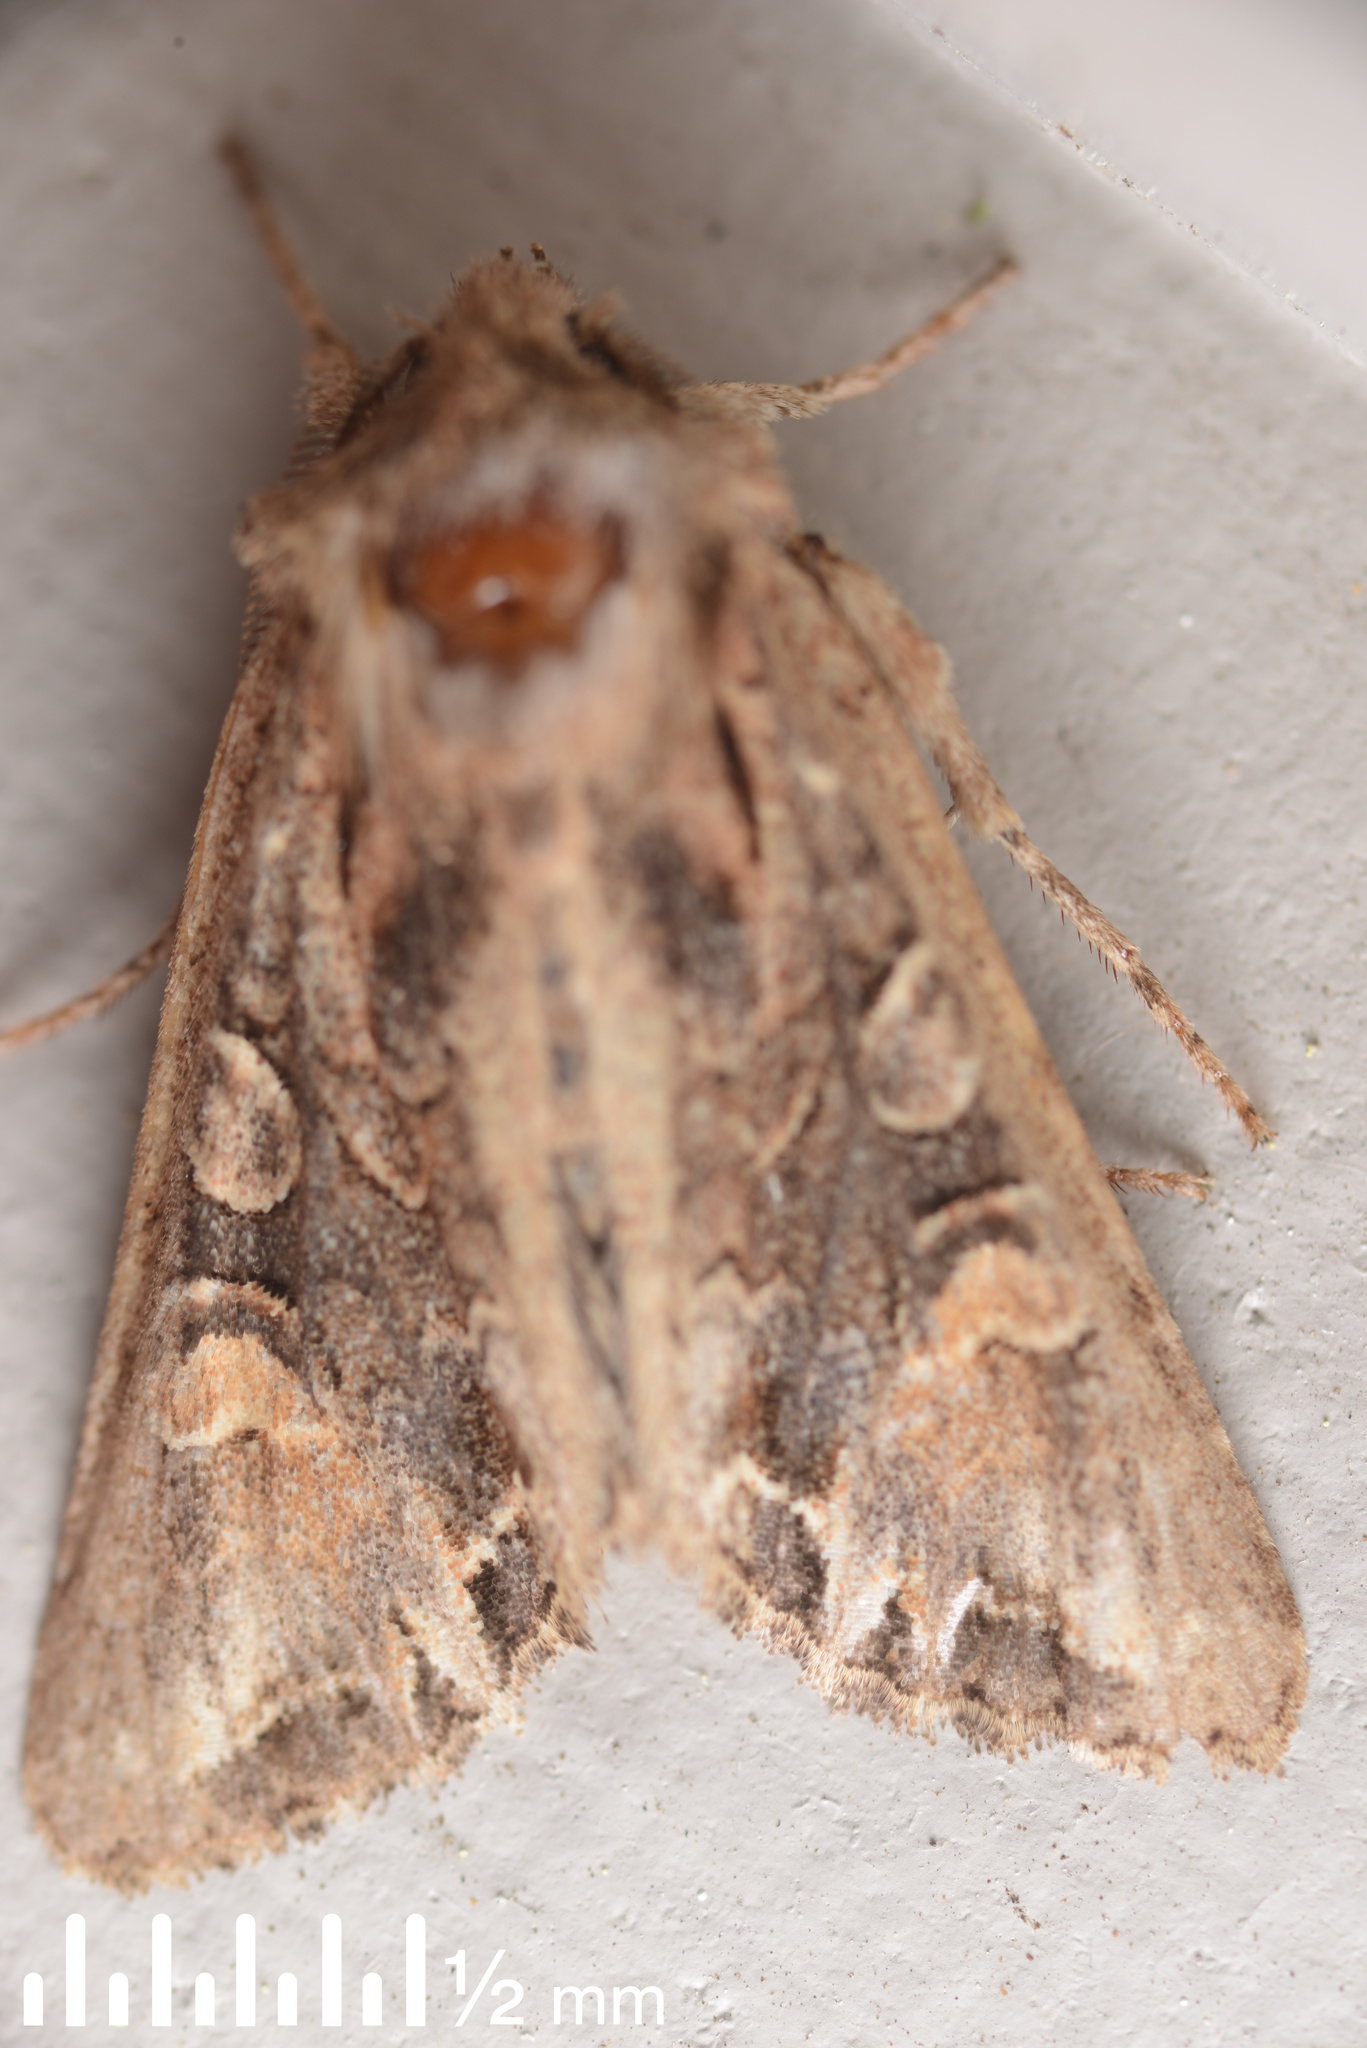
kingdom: Animalia
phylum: Arthropoda
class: Insecta
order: Lepidoptera
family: Noctuidae
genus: Ichneutica
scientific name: Ichneutica insignis
